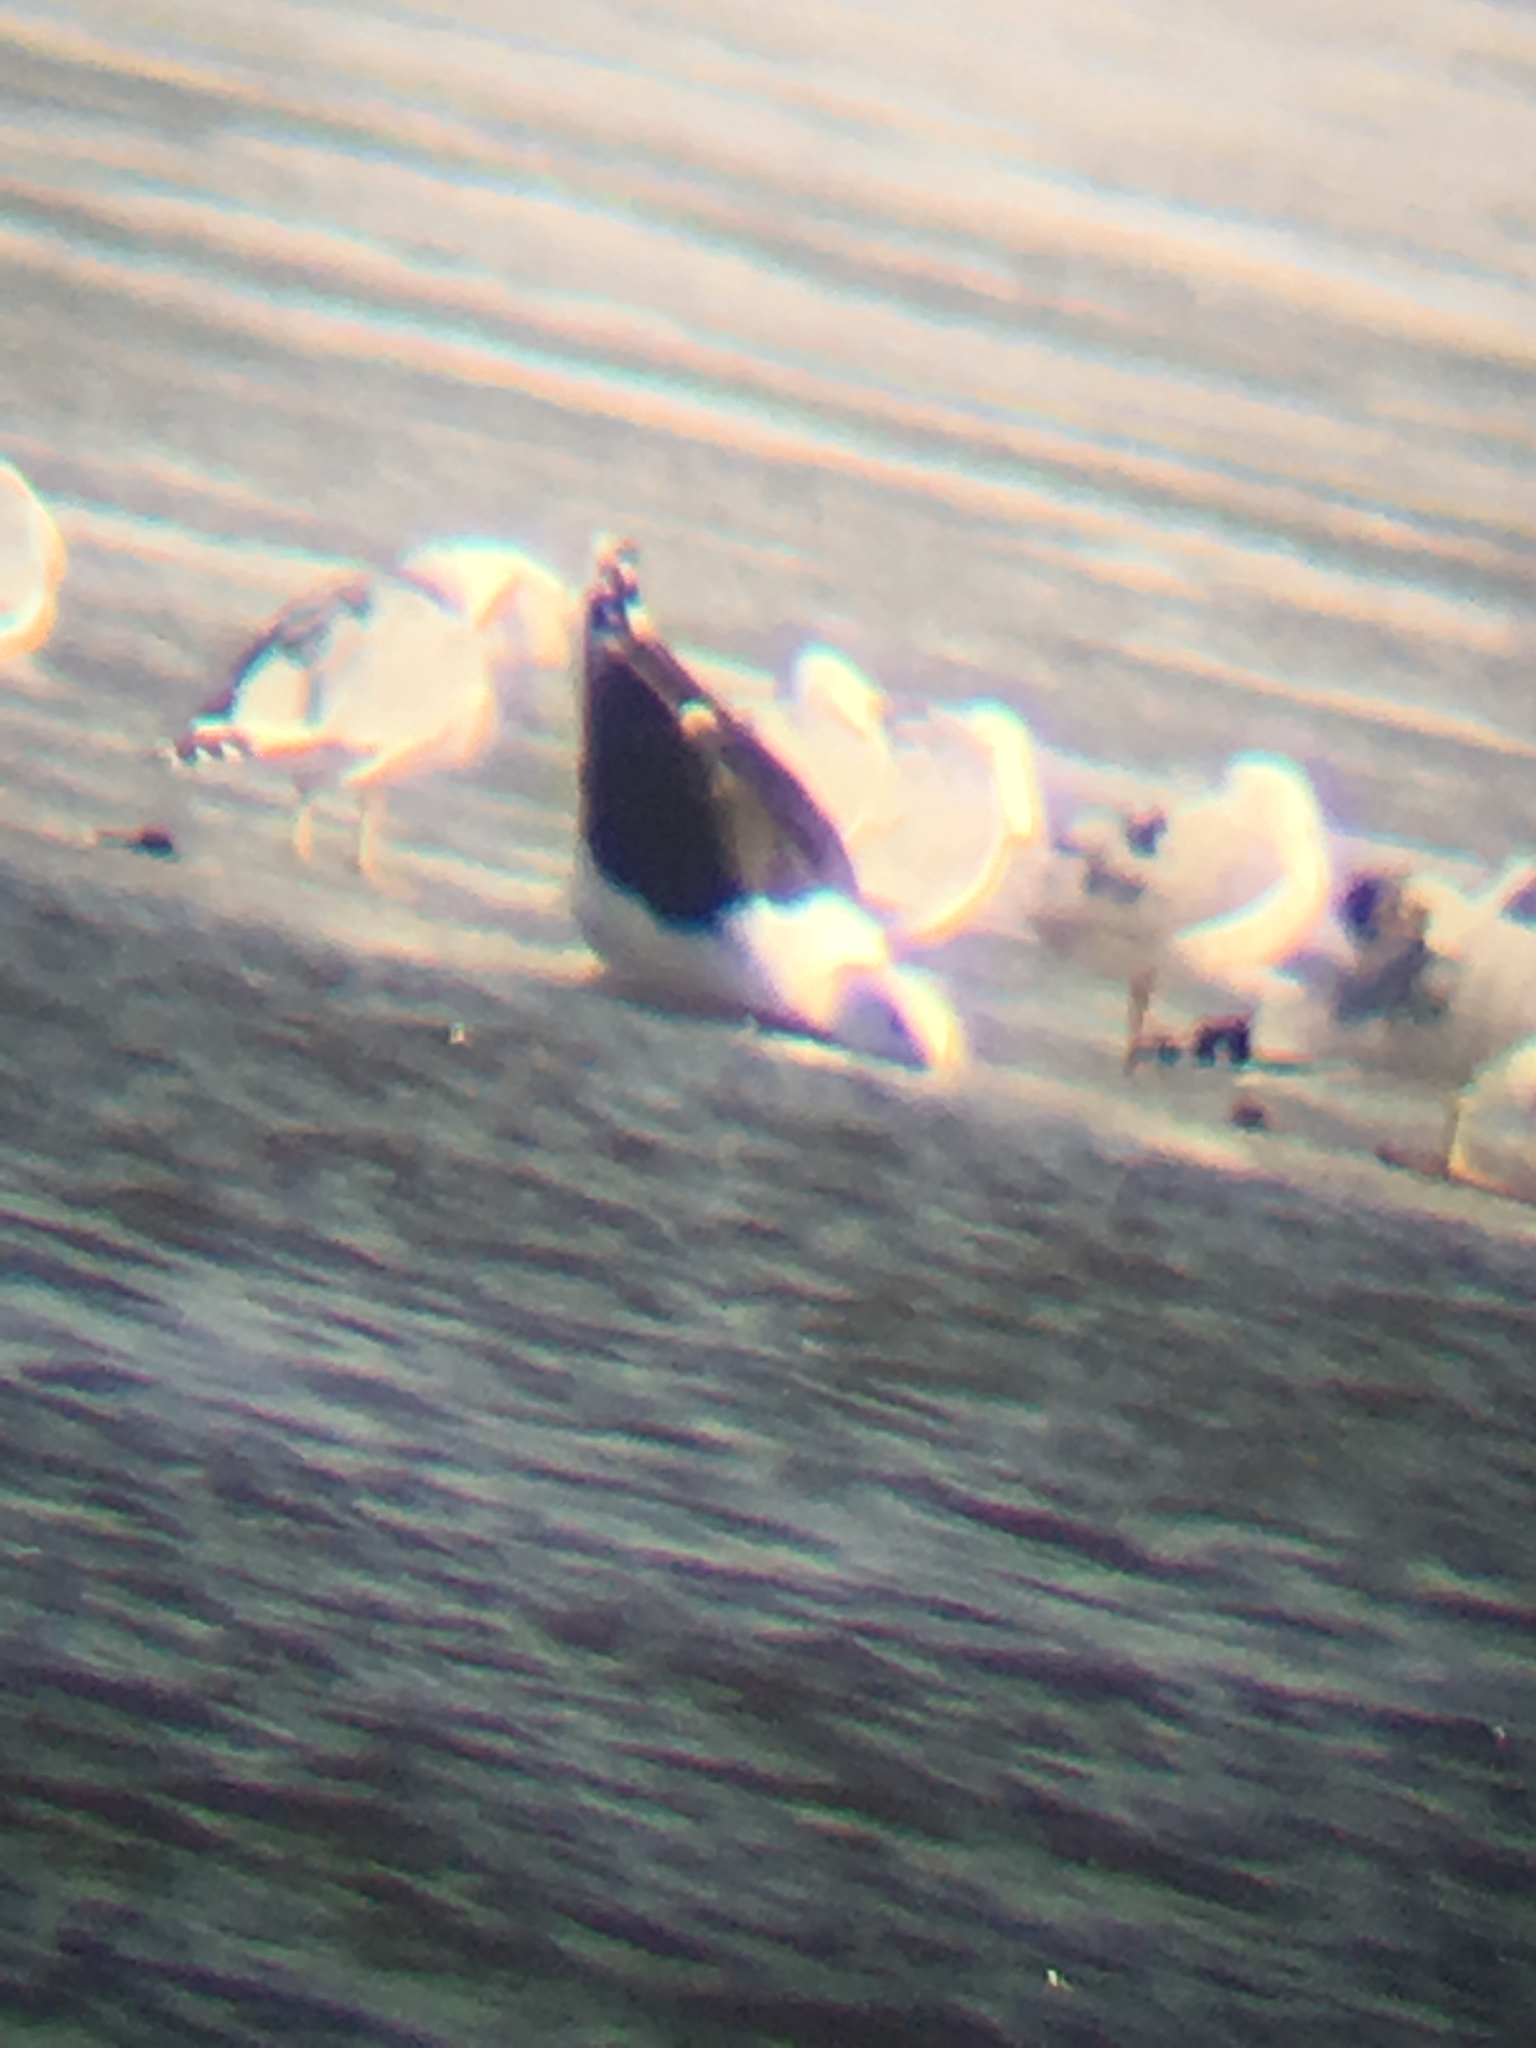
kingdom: Animalia
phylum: Chordata
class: Aves
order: Charadriiformes
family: Laridae
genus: Larus
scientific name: Larus marinus
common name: Great black-backed gull
